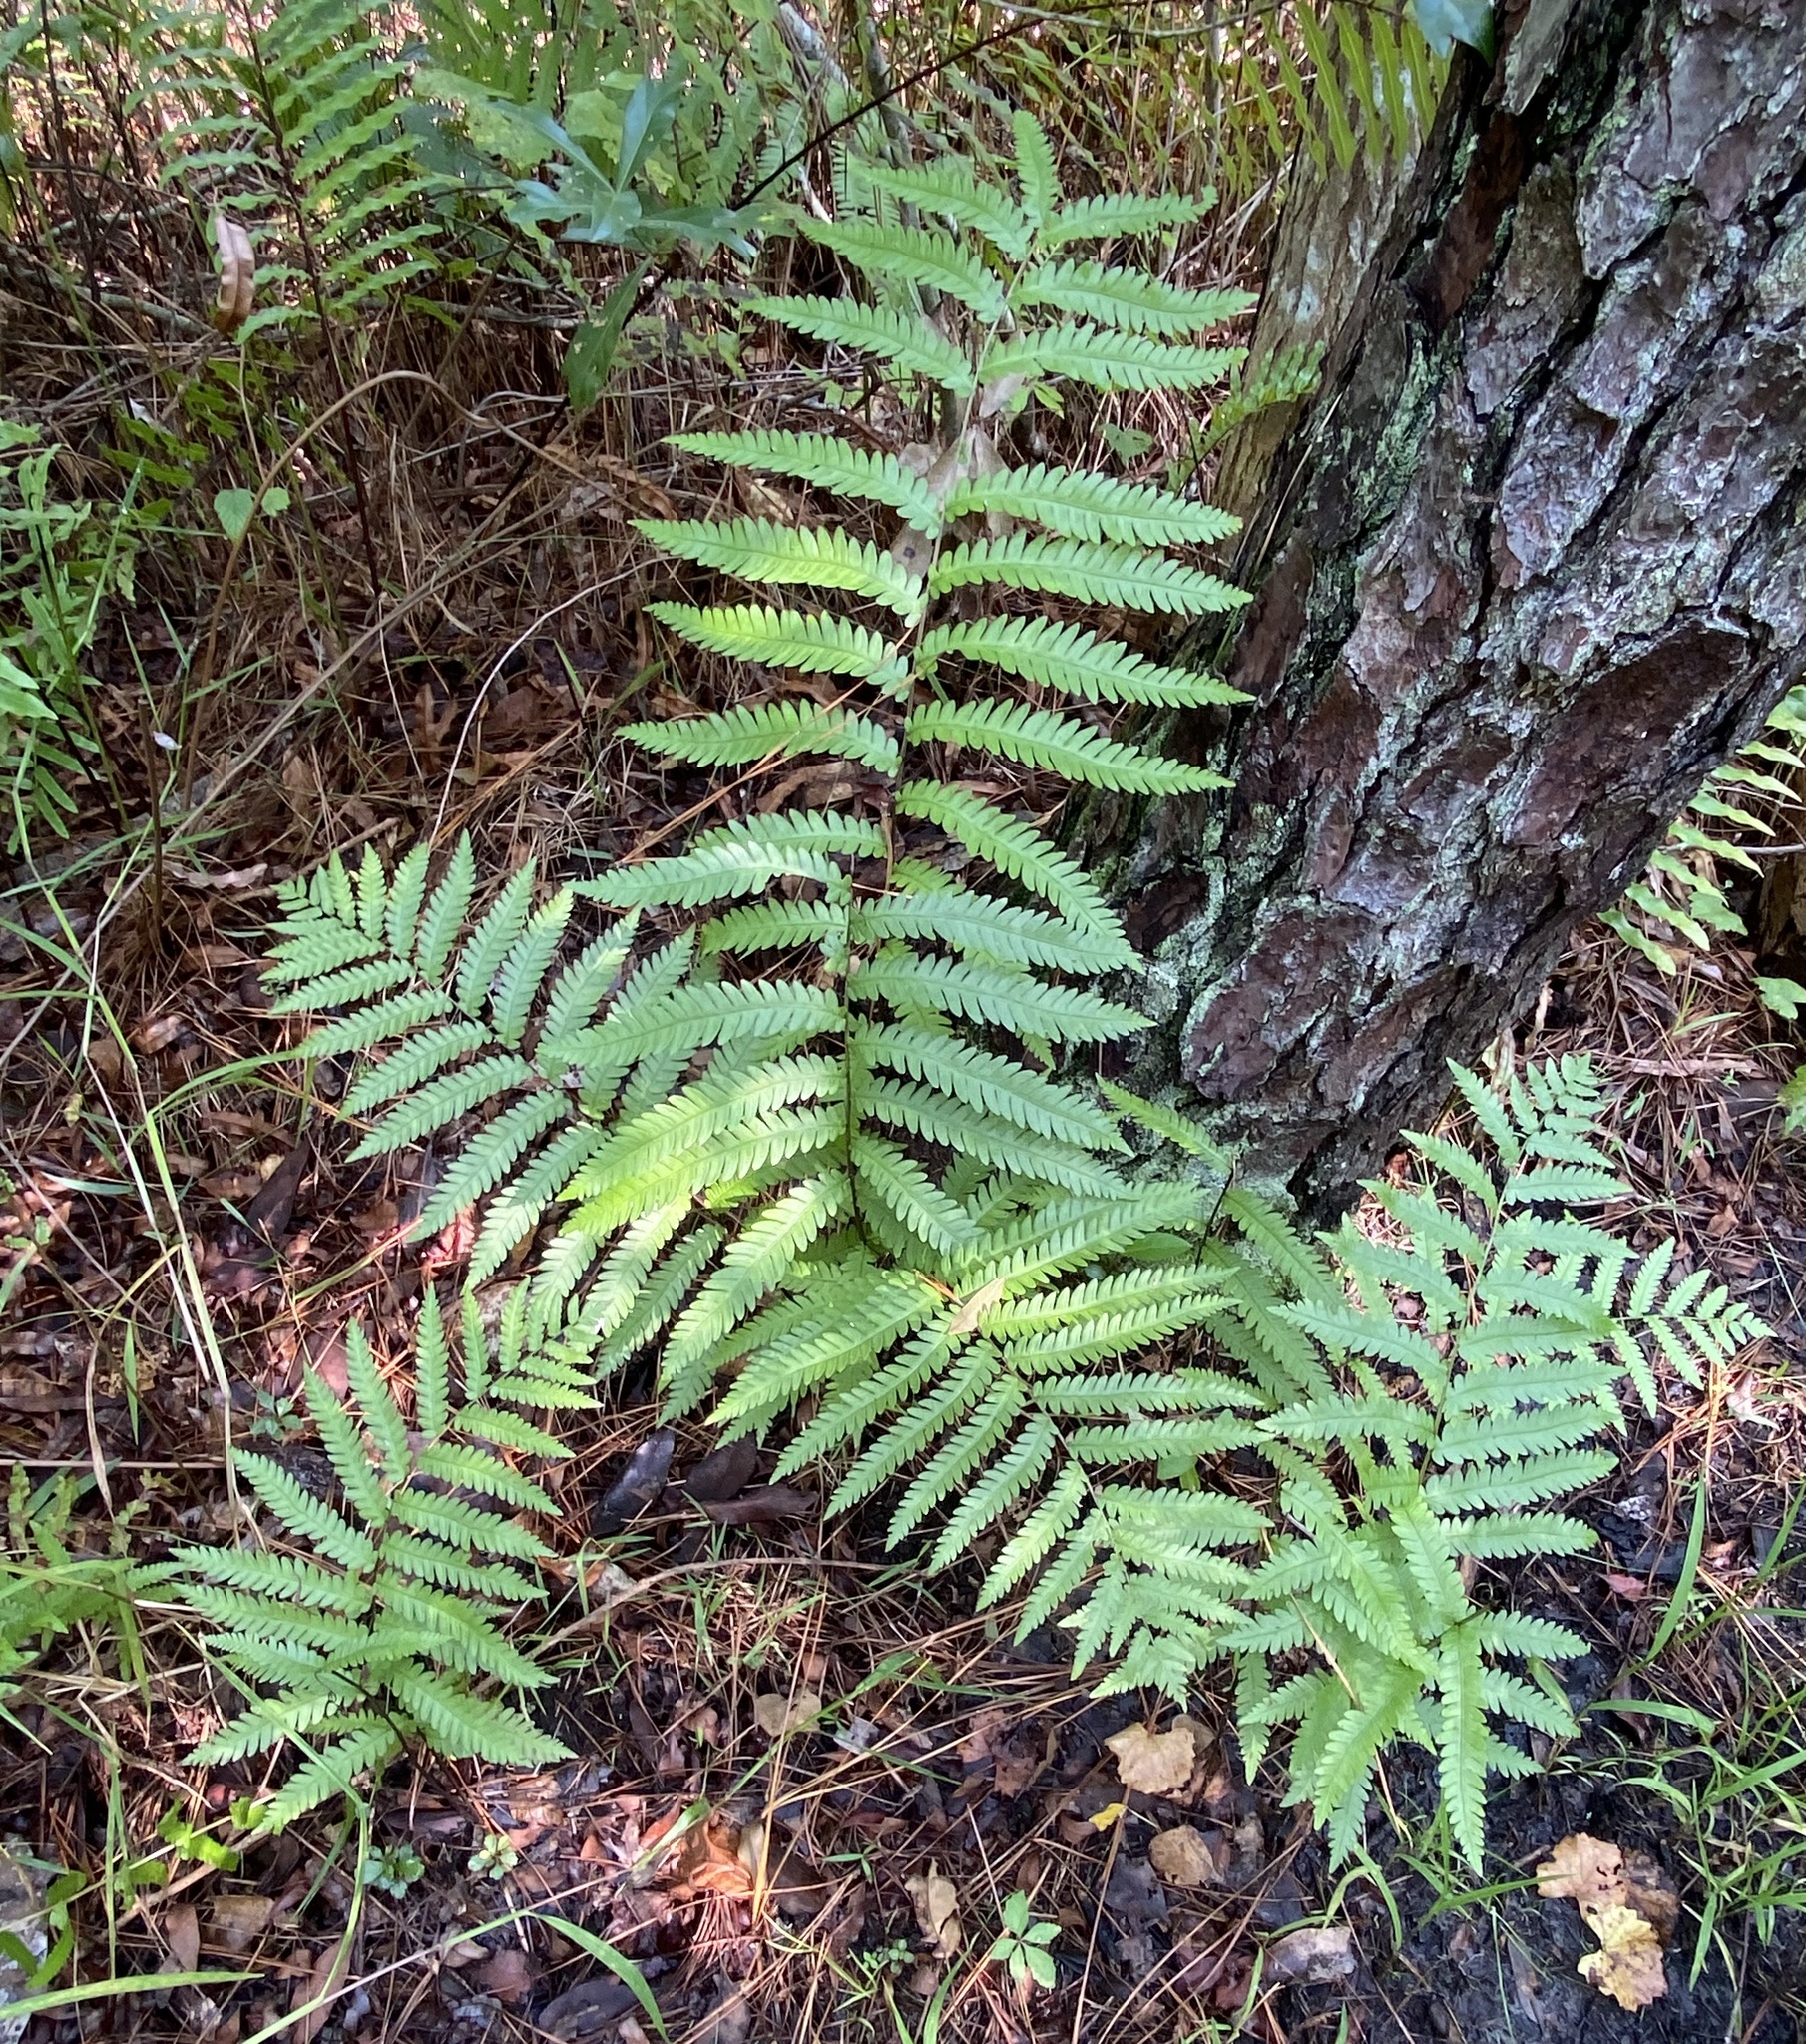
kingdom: Plantae
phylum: Tracheophyta
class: Polypodiopsida
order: Polypodiales
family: Blechnaceae
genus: Anchistea
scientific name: Anchistea virginica
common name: Virginia chain fern
